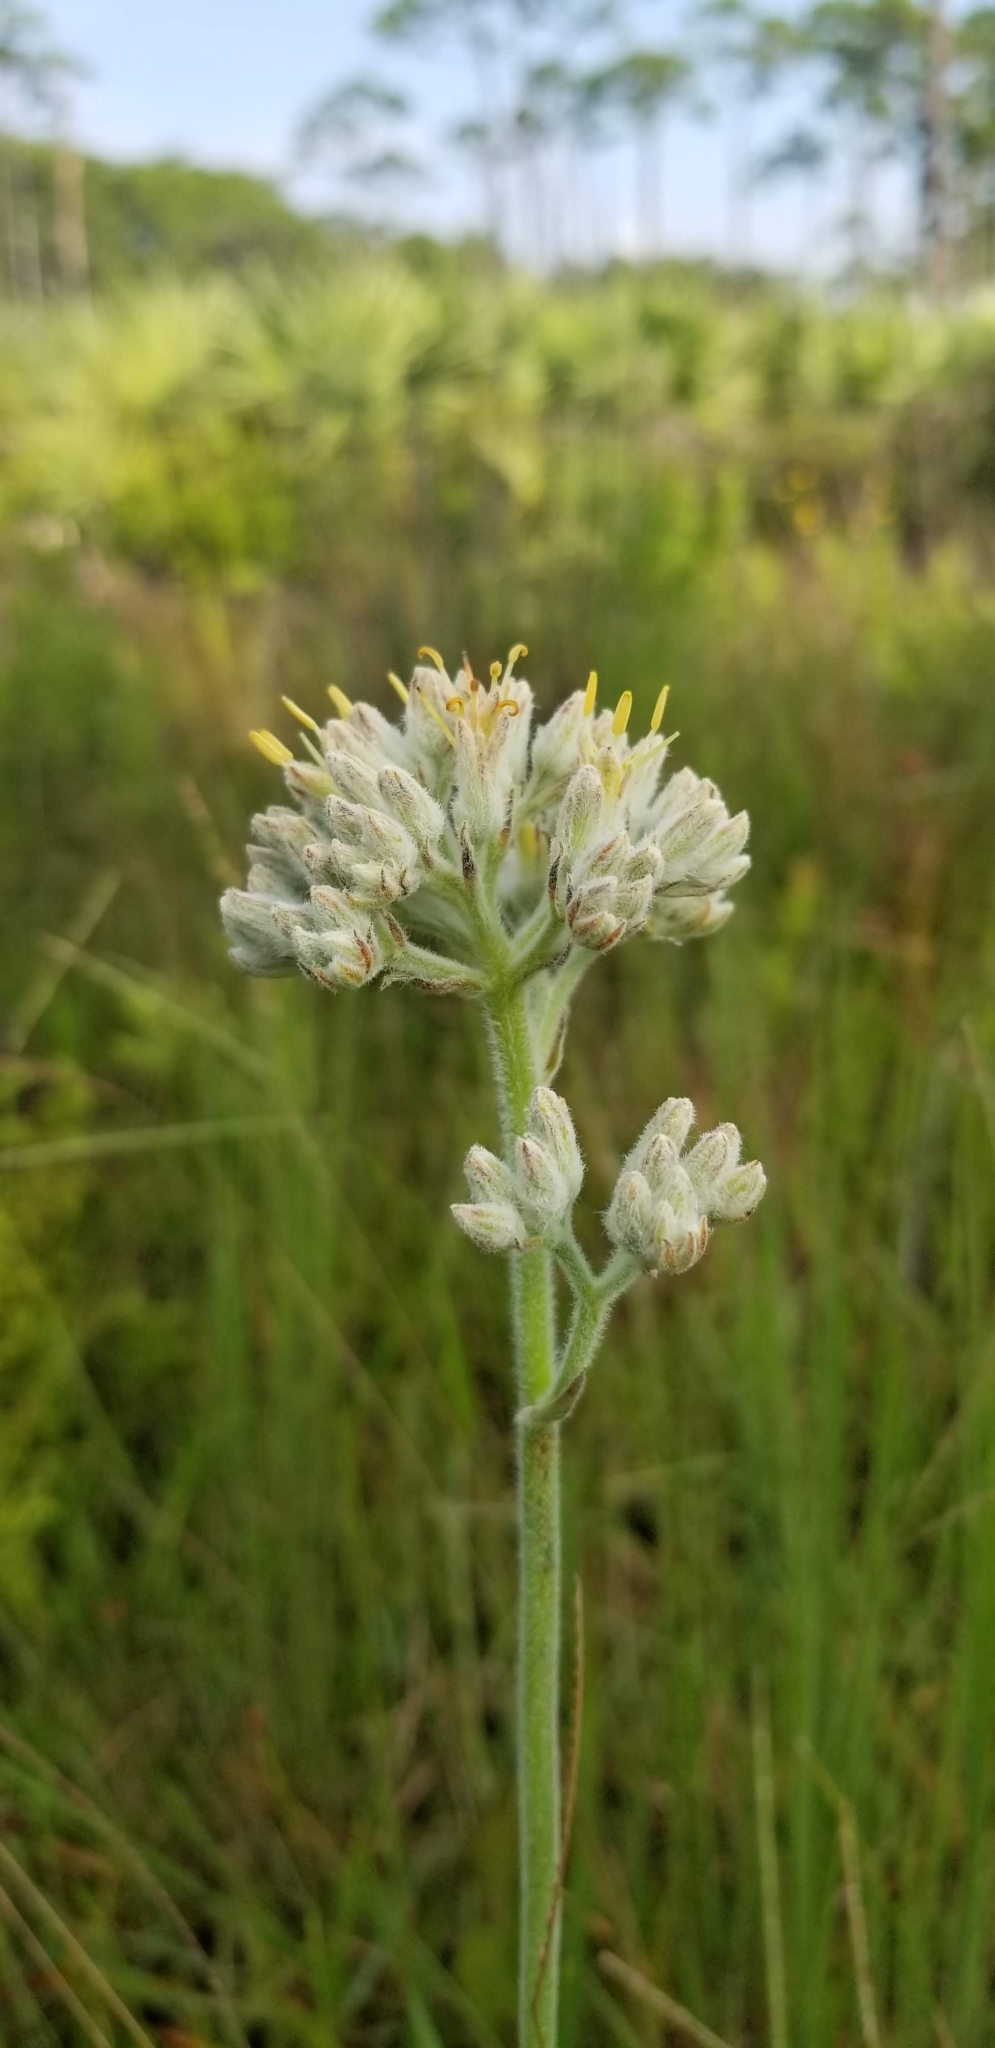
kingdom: Plantae
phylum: Tracheophyta
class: Liliopsida
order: Commelinales
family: Haemodoraceae
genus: Lachnanthes
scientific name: Lachnanthes caroliana
